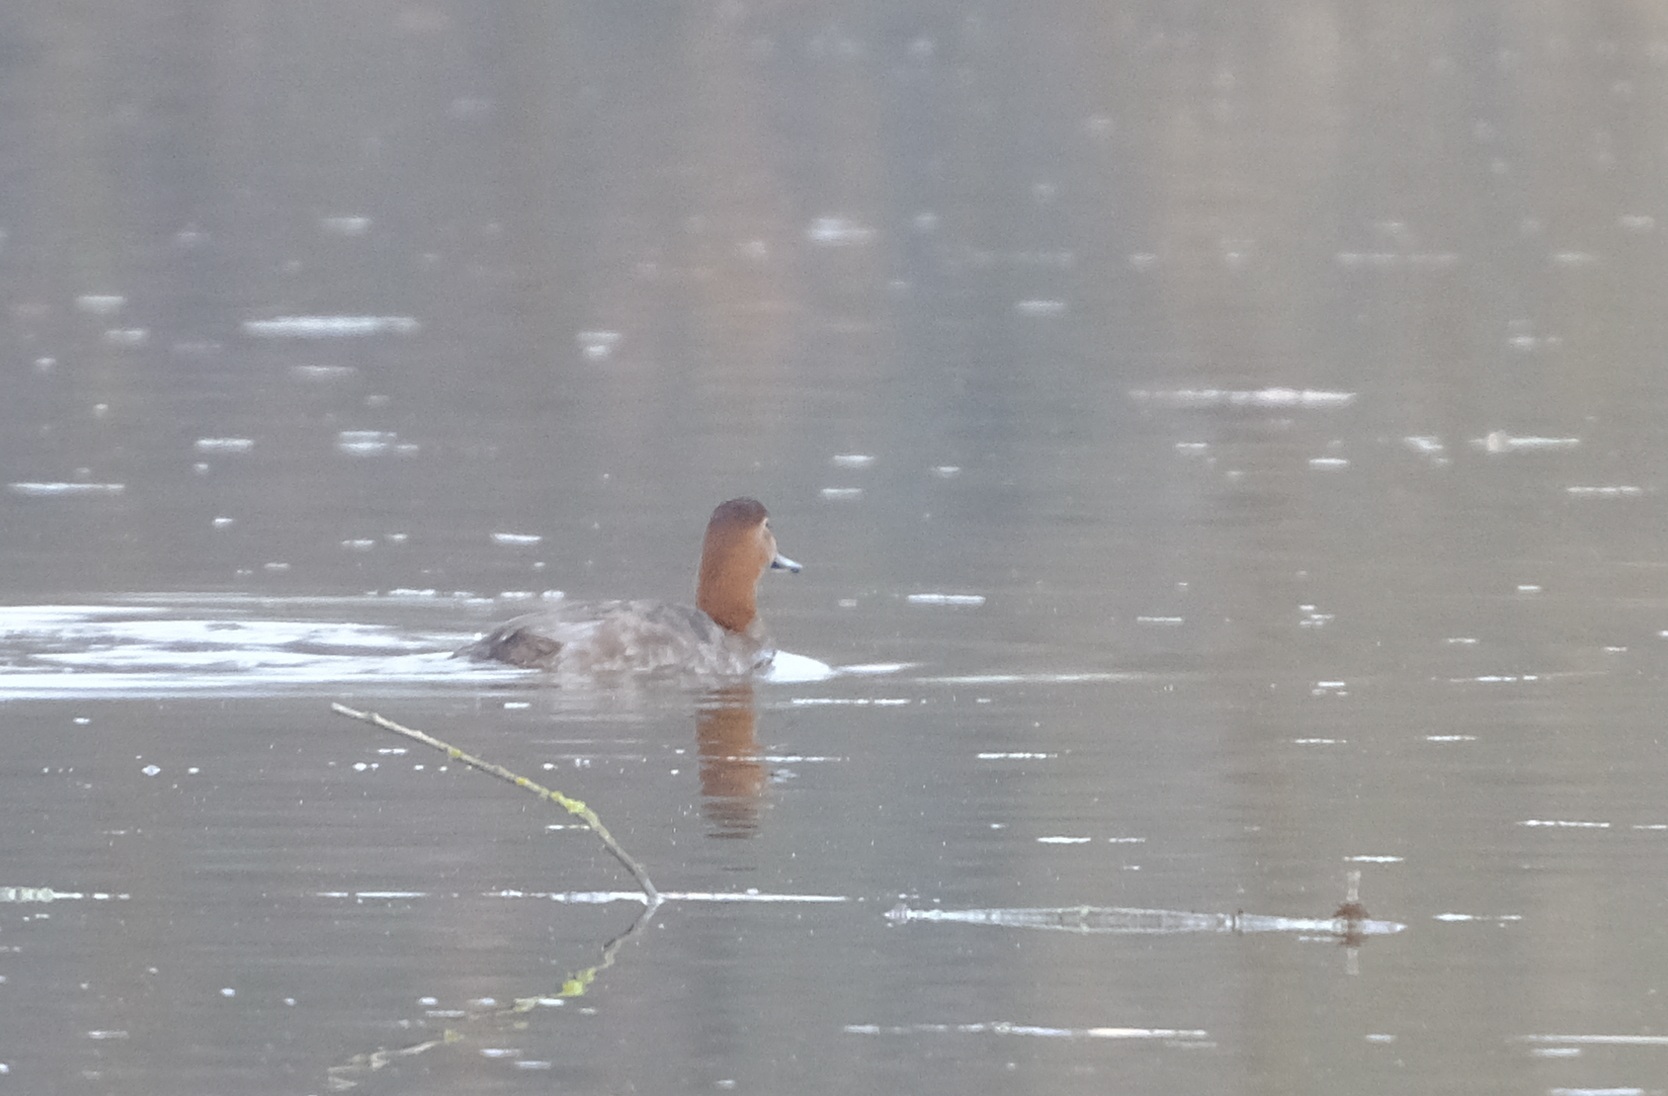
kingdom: Animalia
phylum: Chordata
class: Aves
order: Anseriformes
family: Anatidae
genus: Aythya
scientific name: Aythya ferina
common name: Common pochard
